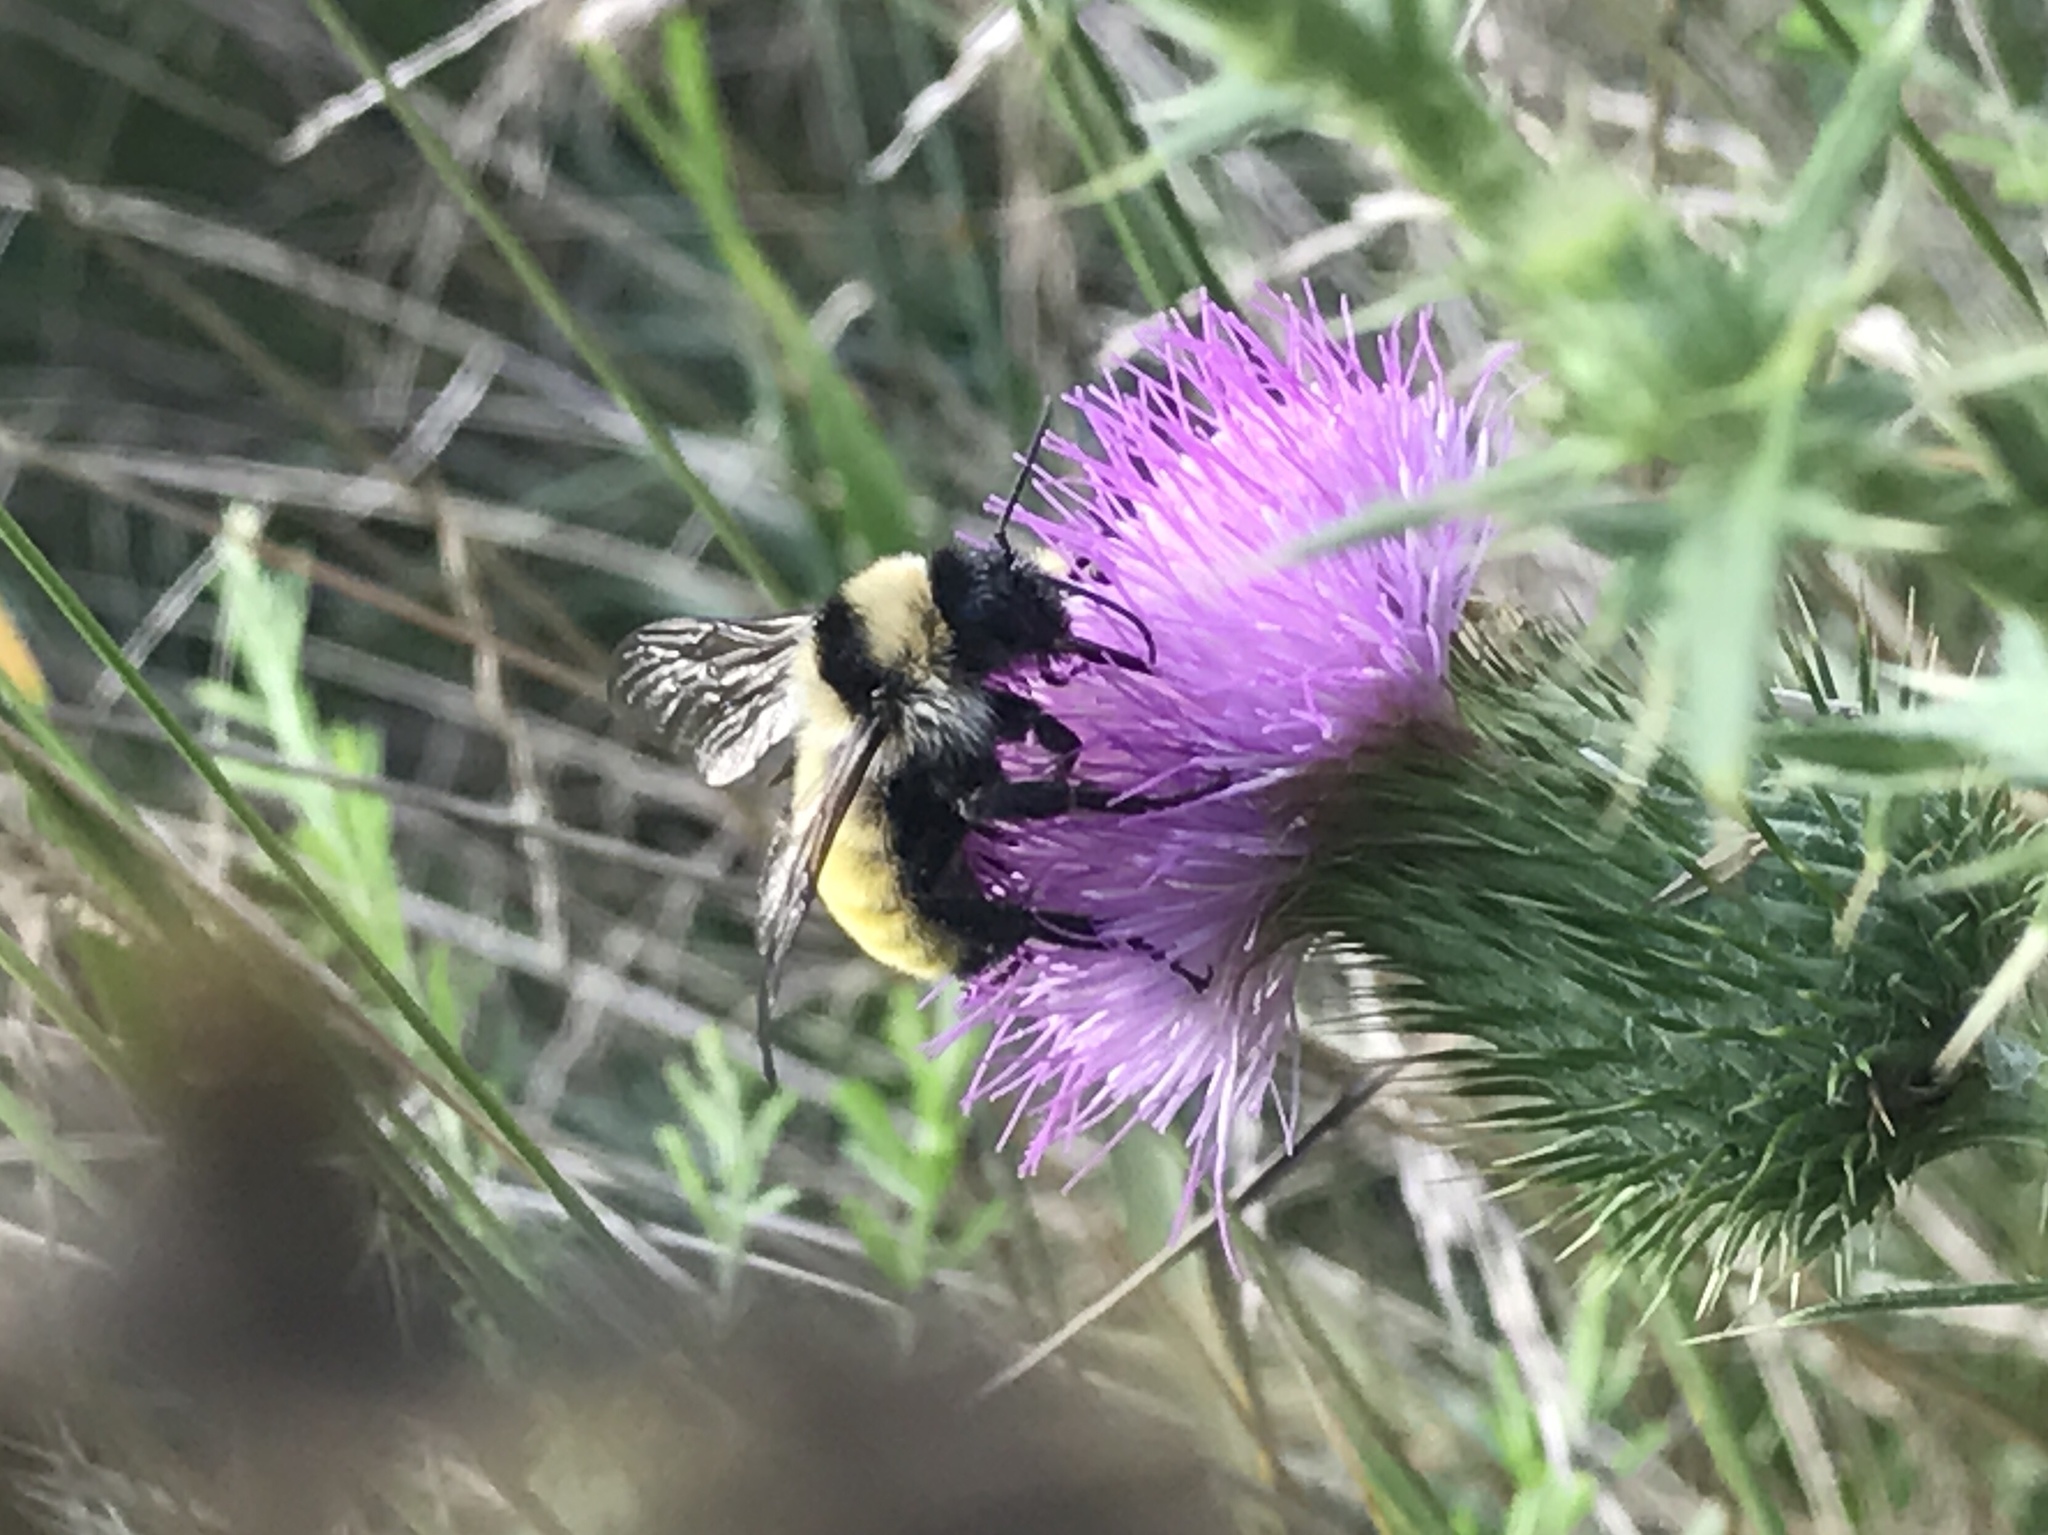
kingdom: Animalia
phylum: Arthropoda
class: Insecta
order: Hymenoptera
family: Apidae
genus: Bombus
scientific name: Bombus fervidus
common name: Yellow bumble bee
